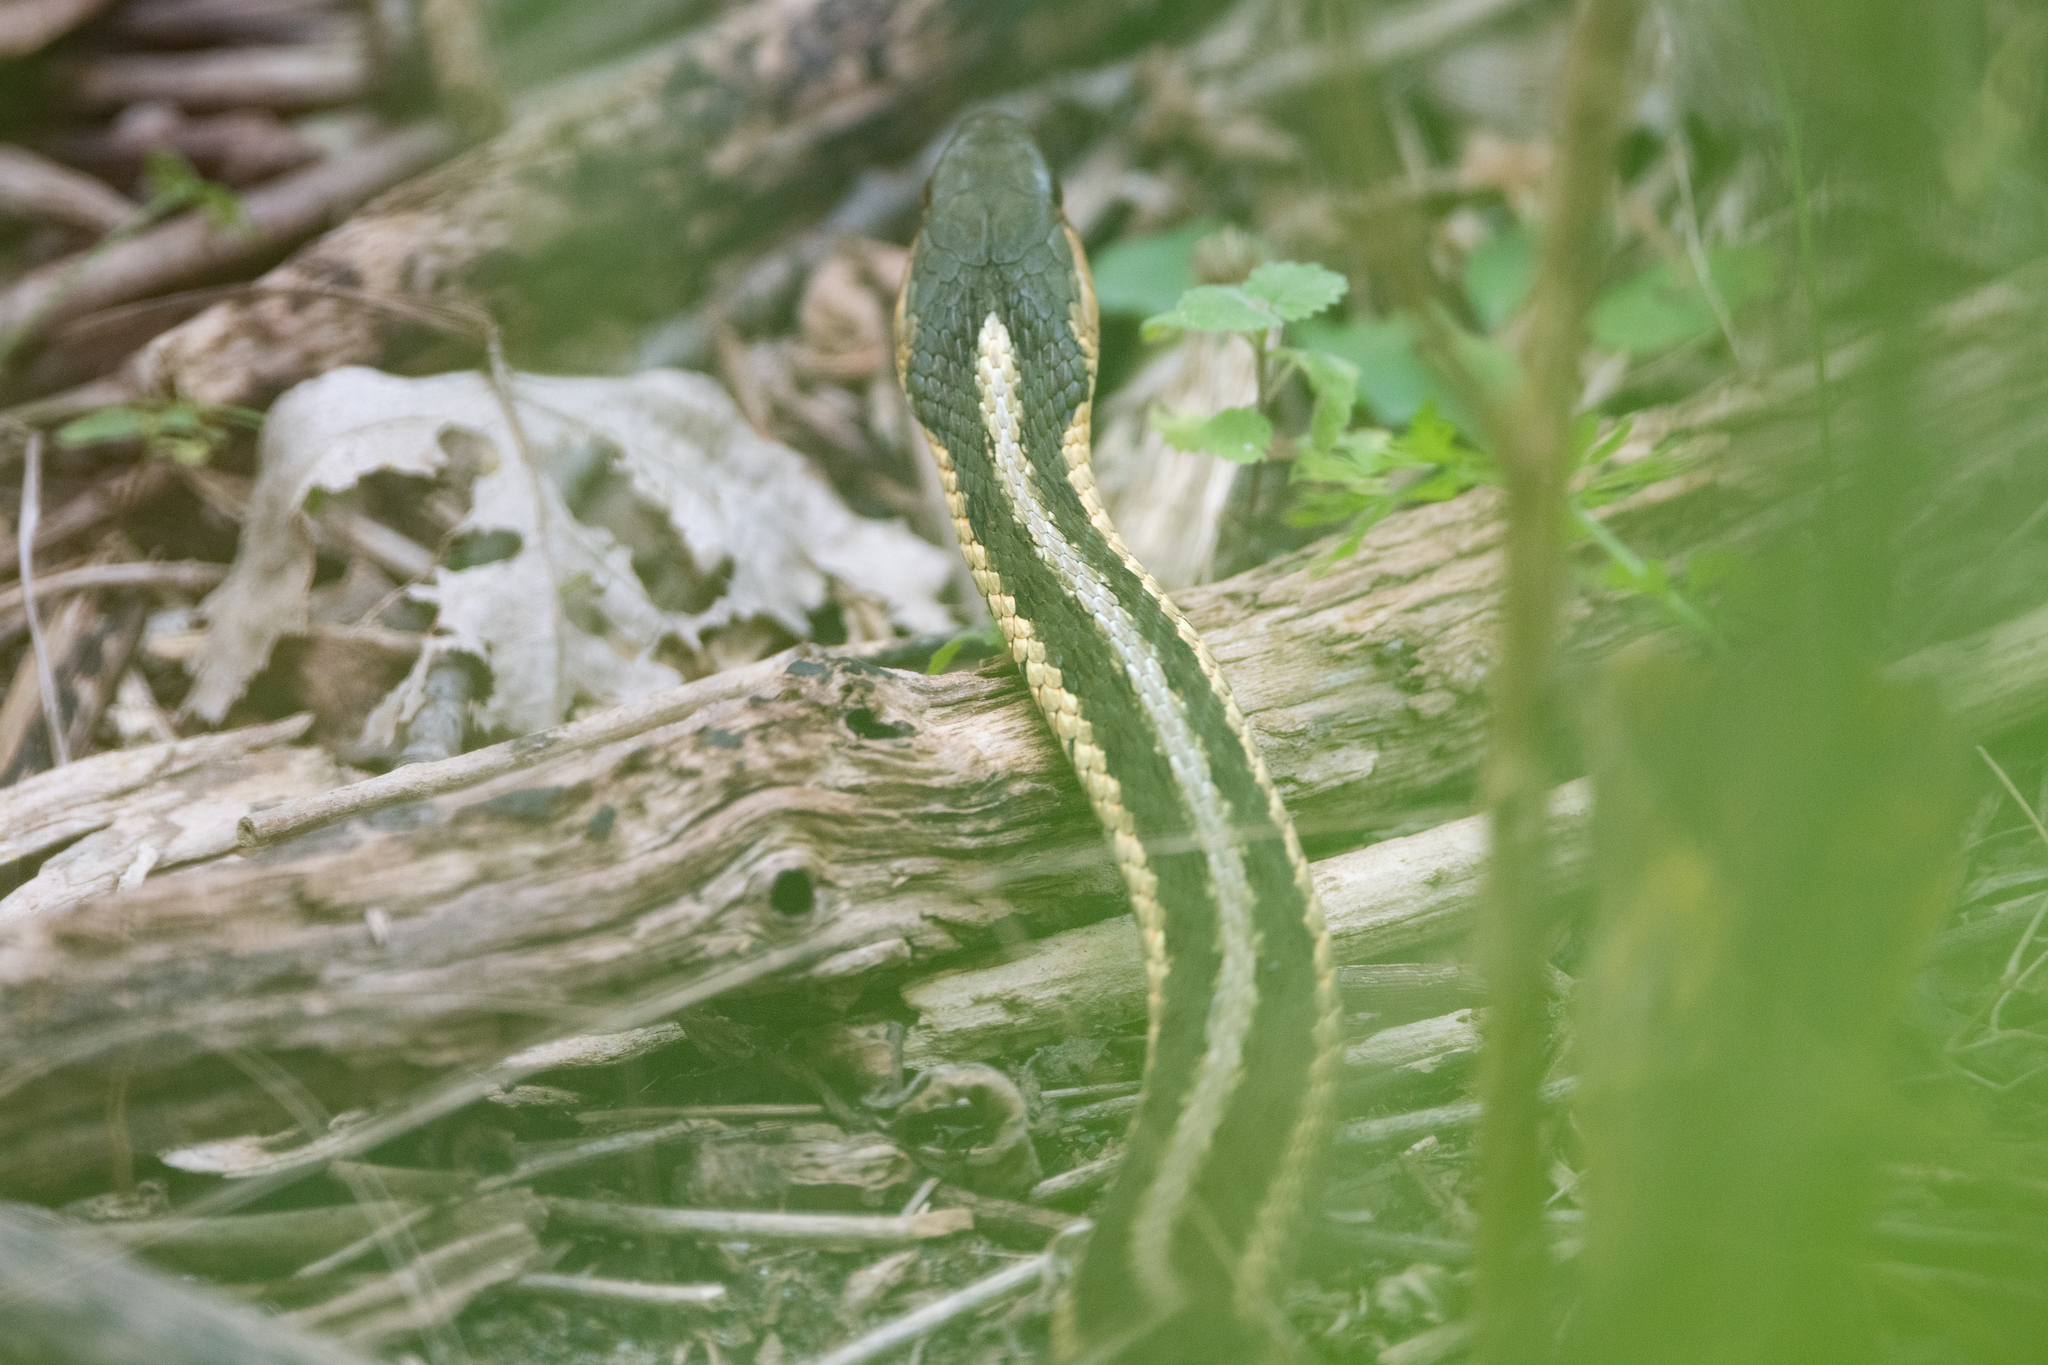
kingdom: Animalia
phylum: Chordata
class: Squamata
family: Colubridae
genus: Thamnophis
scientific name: Thamnophis sirtalis
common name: Common garter snake
